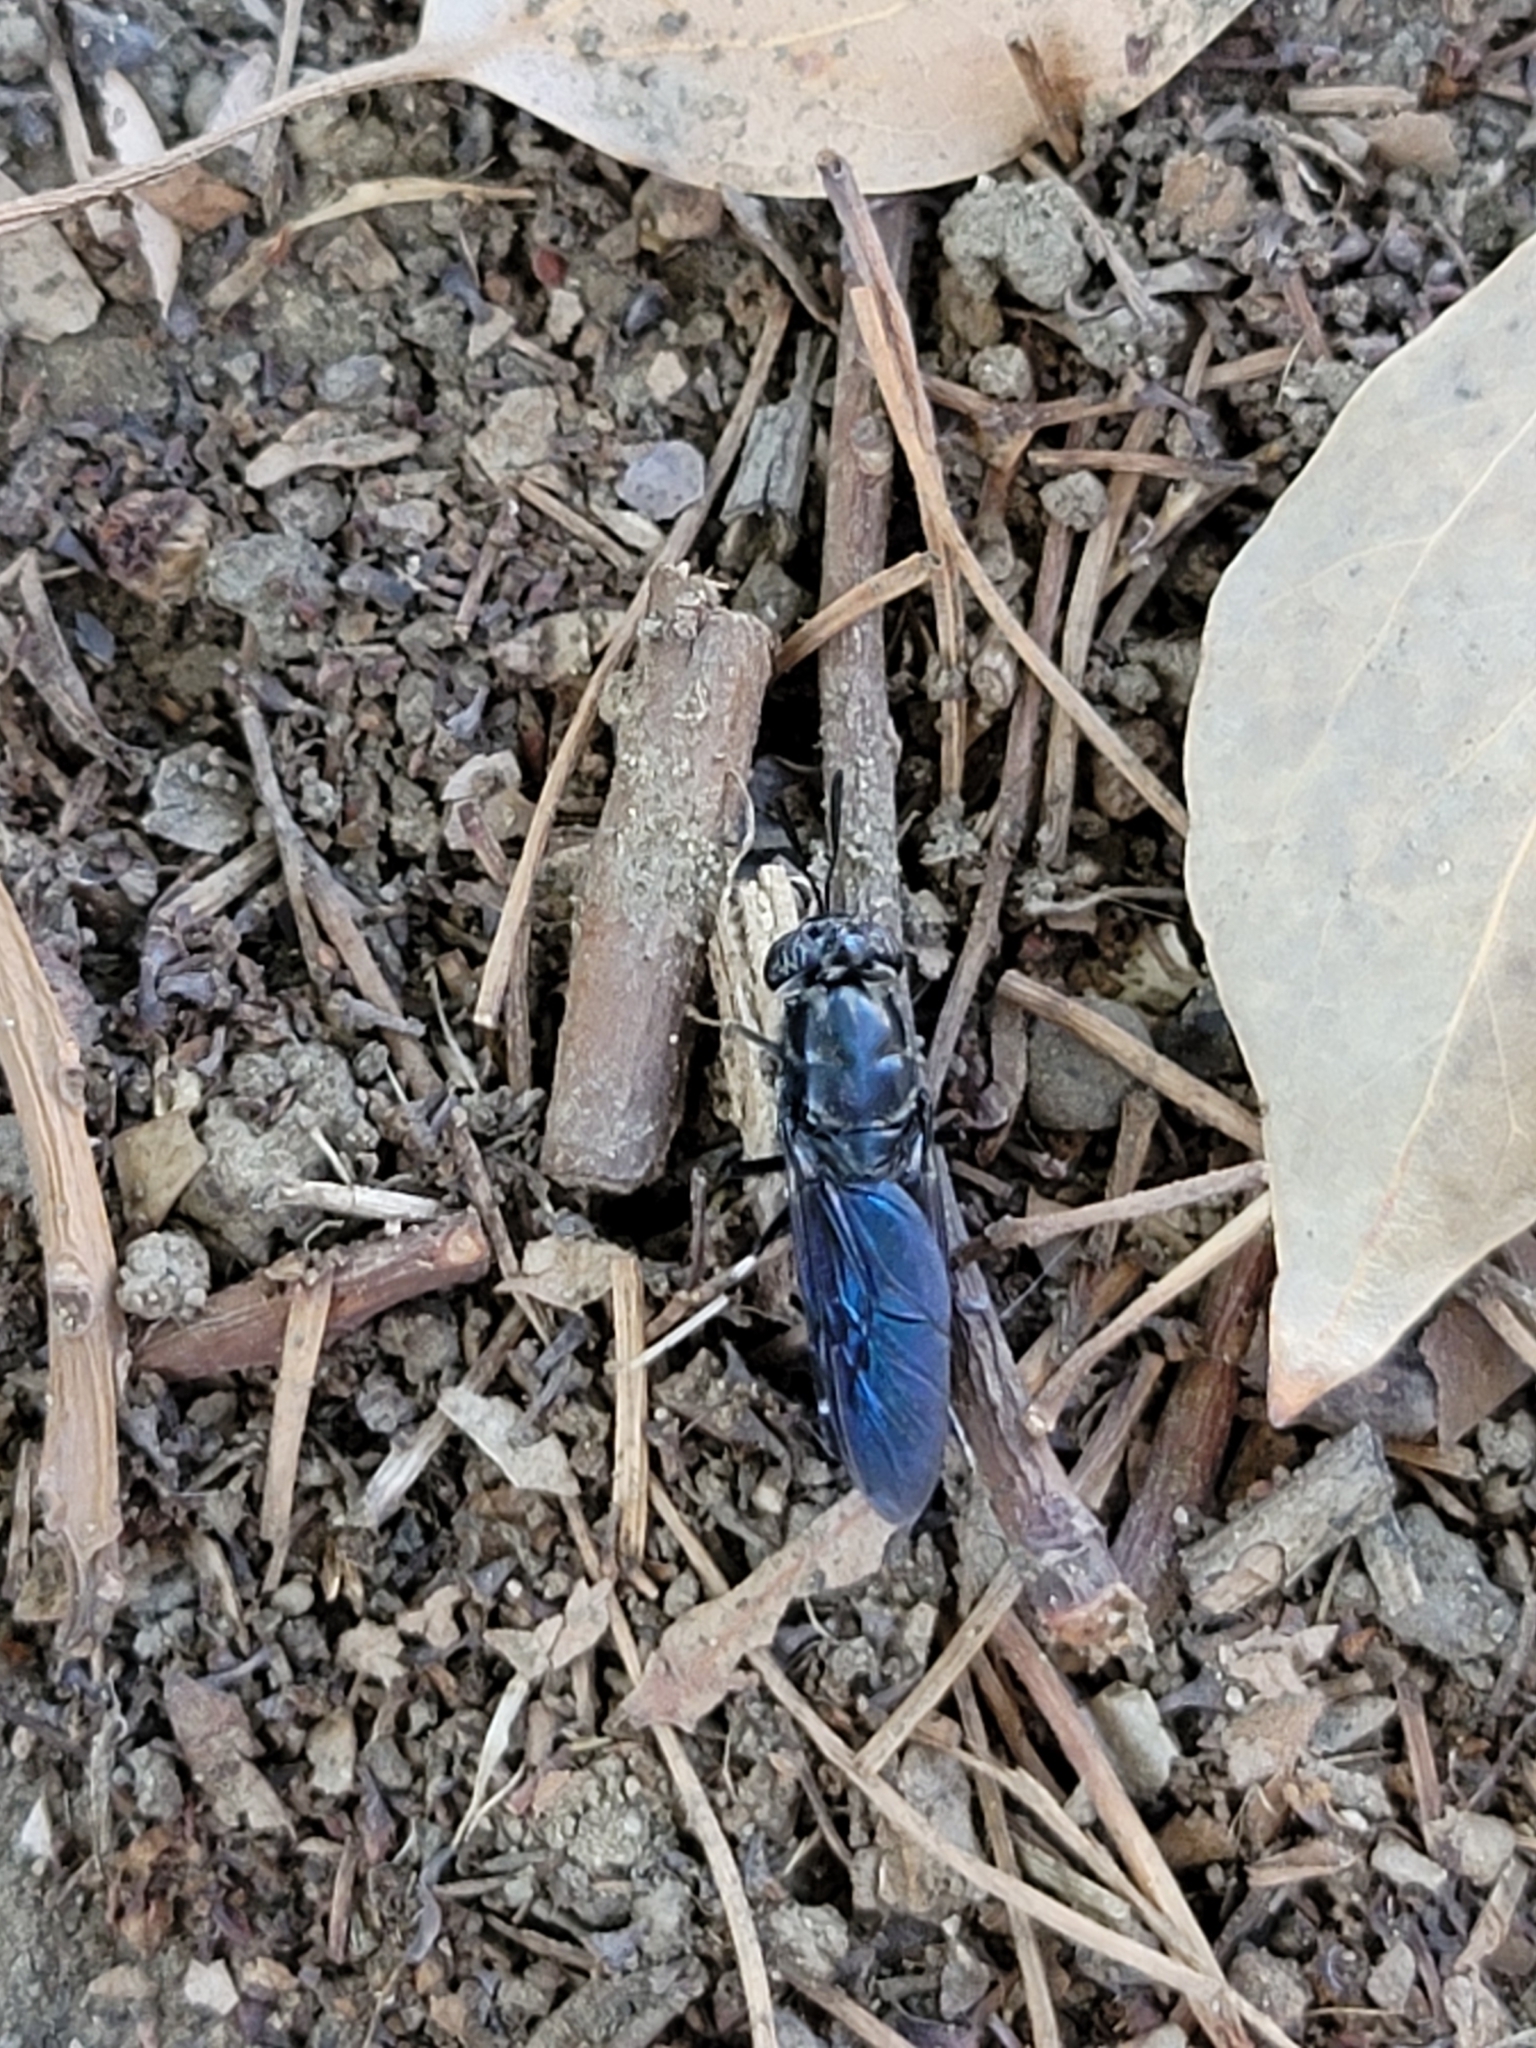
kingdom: Animalia
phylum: Arthropoda
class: Insecta
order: Diptera
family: Stratiomyidae
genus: Hermetia
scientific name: Hermetia illucens
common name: Black soldier fly
